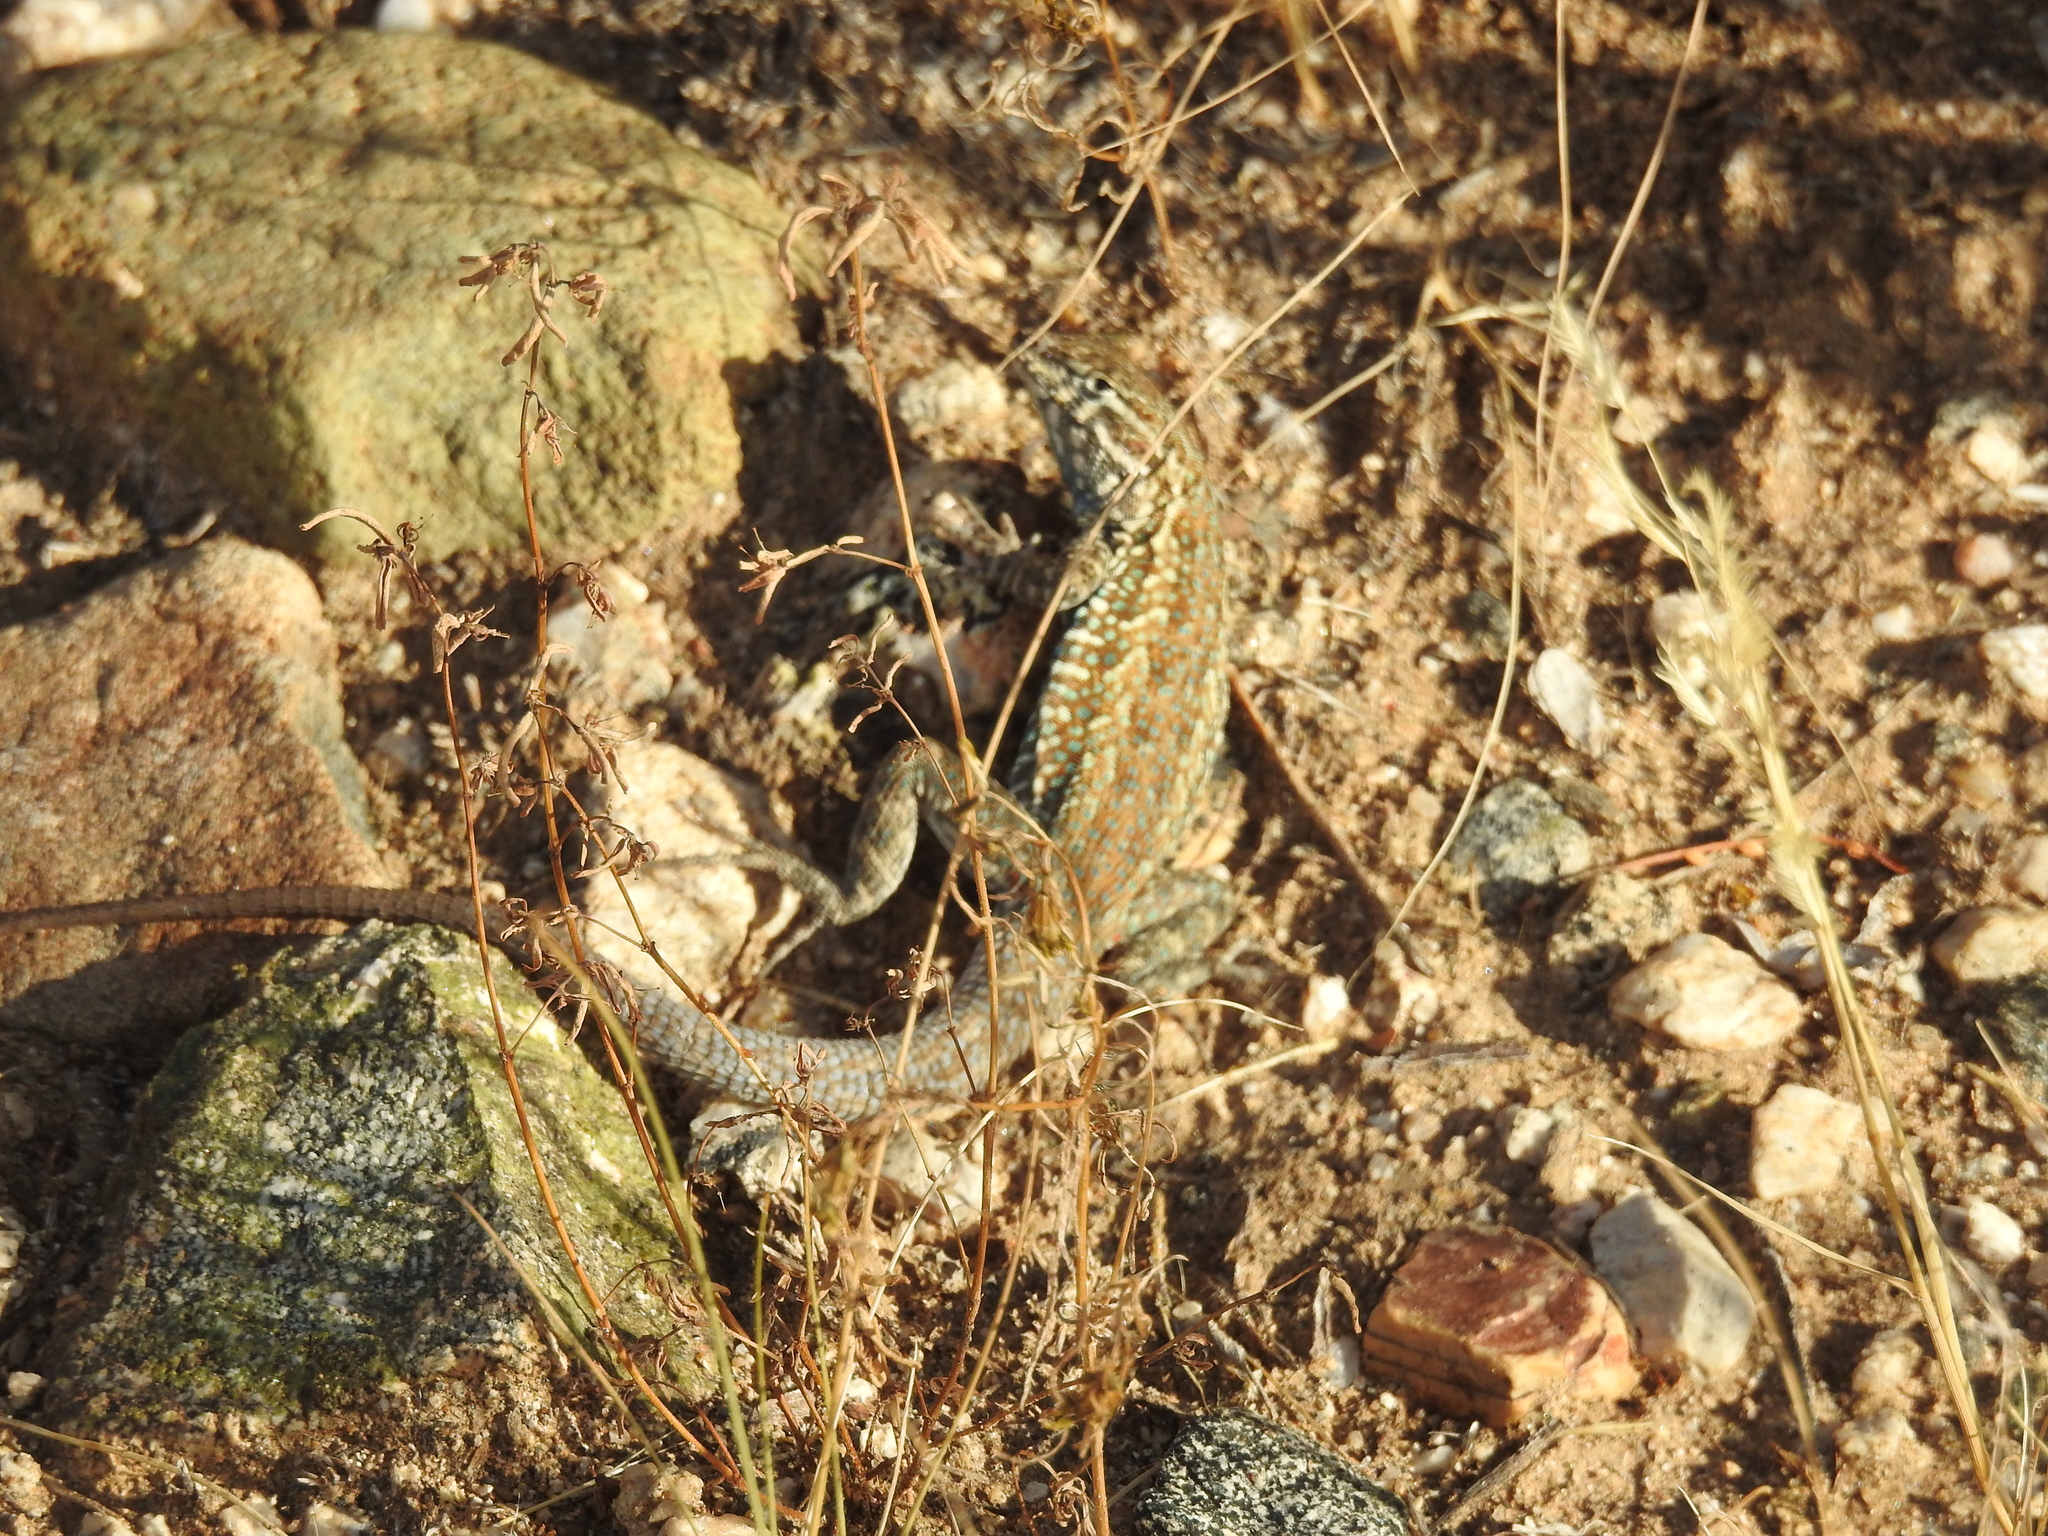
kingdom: Animalia
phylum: Chordata
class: Squamata
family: Phrynosomatidae
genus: Uta
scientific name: Uta stansburiana
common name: Side-blotched lizard
